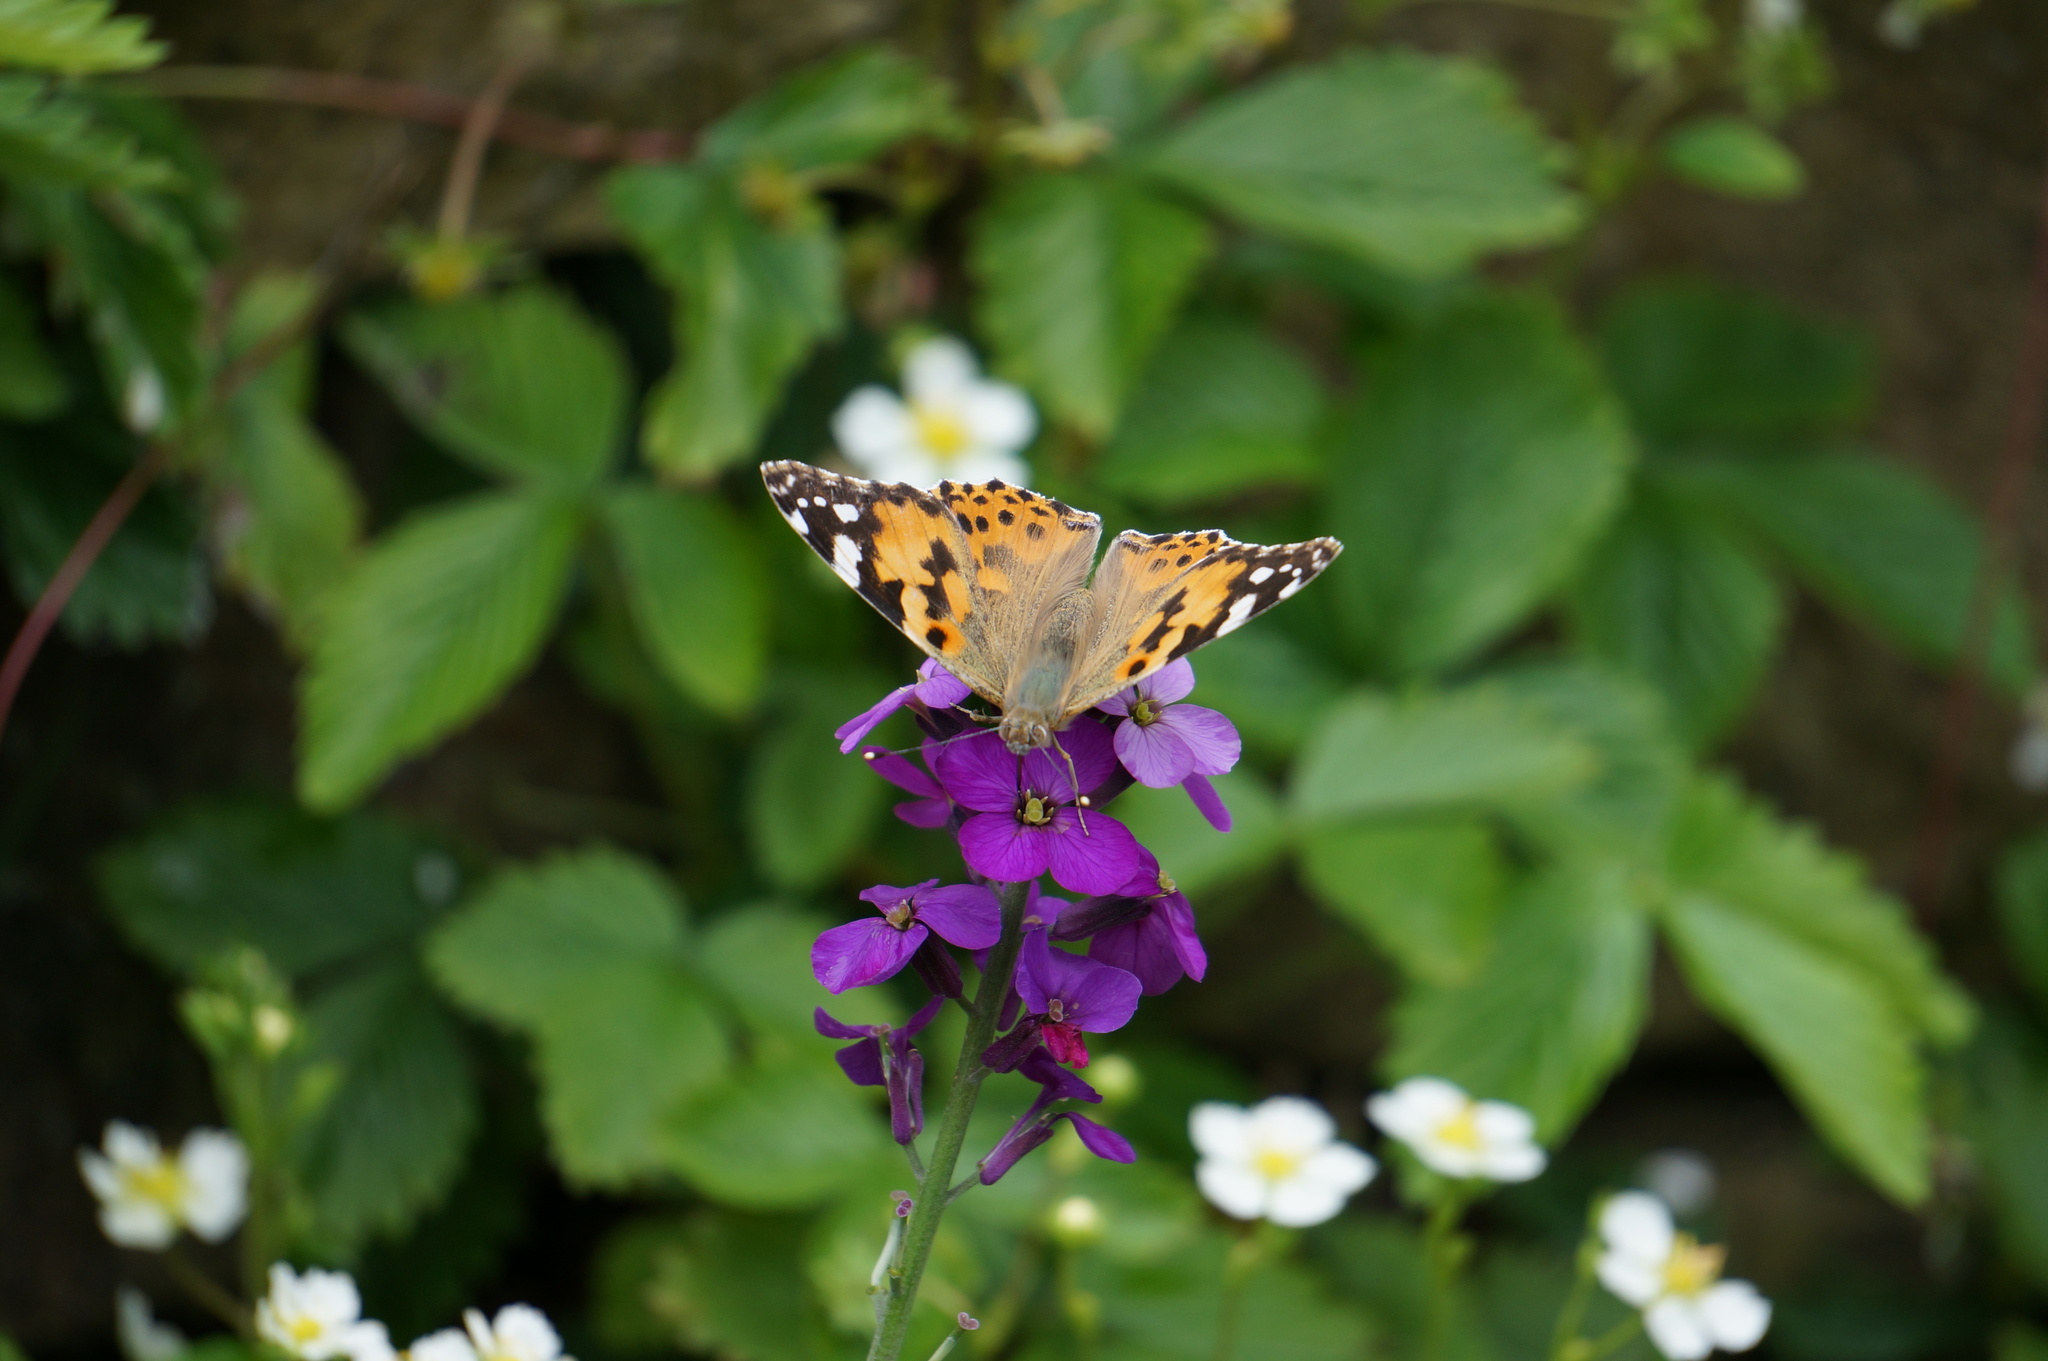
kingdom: Animalia
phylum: Arthropoda
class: Insecta
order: Lepidoptera
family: Nymphalidae
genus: Vanessa
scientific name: Vanessa cardui
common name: Painted lady
